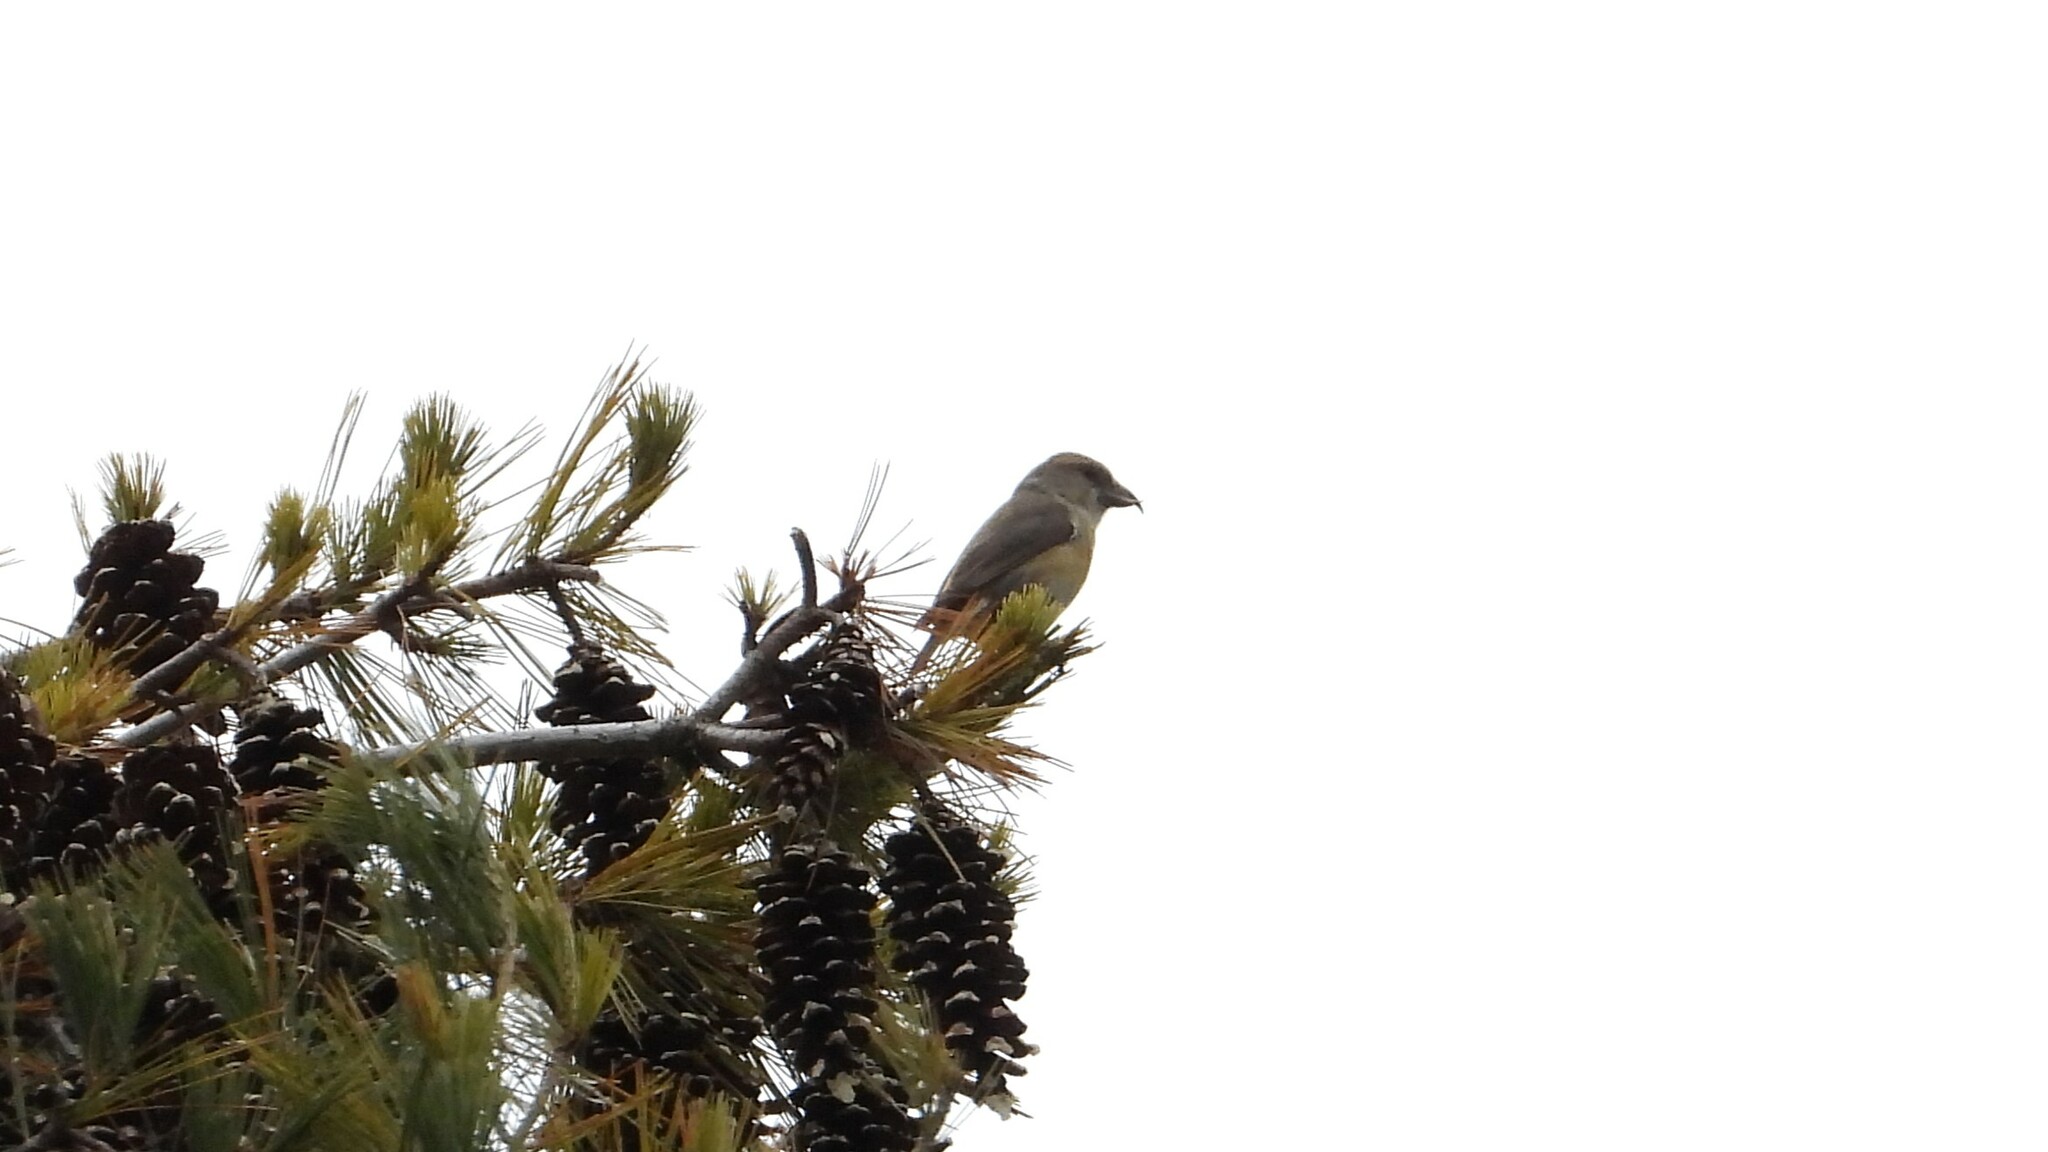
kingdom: Animalia
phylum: Chordata
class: Aves
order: Passeriformes
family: Fringillidae
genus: Loxia
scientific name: Loxia curvirostra
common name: Red crossbill
